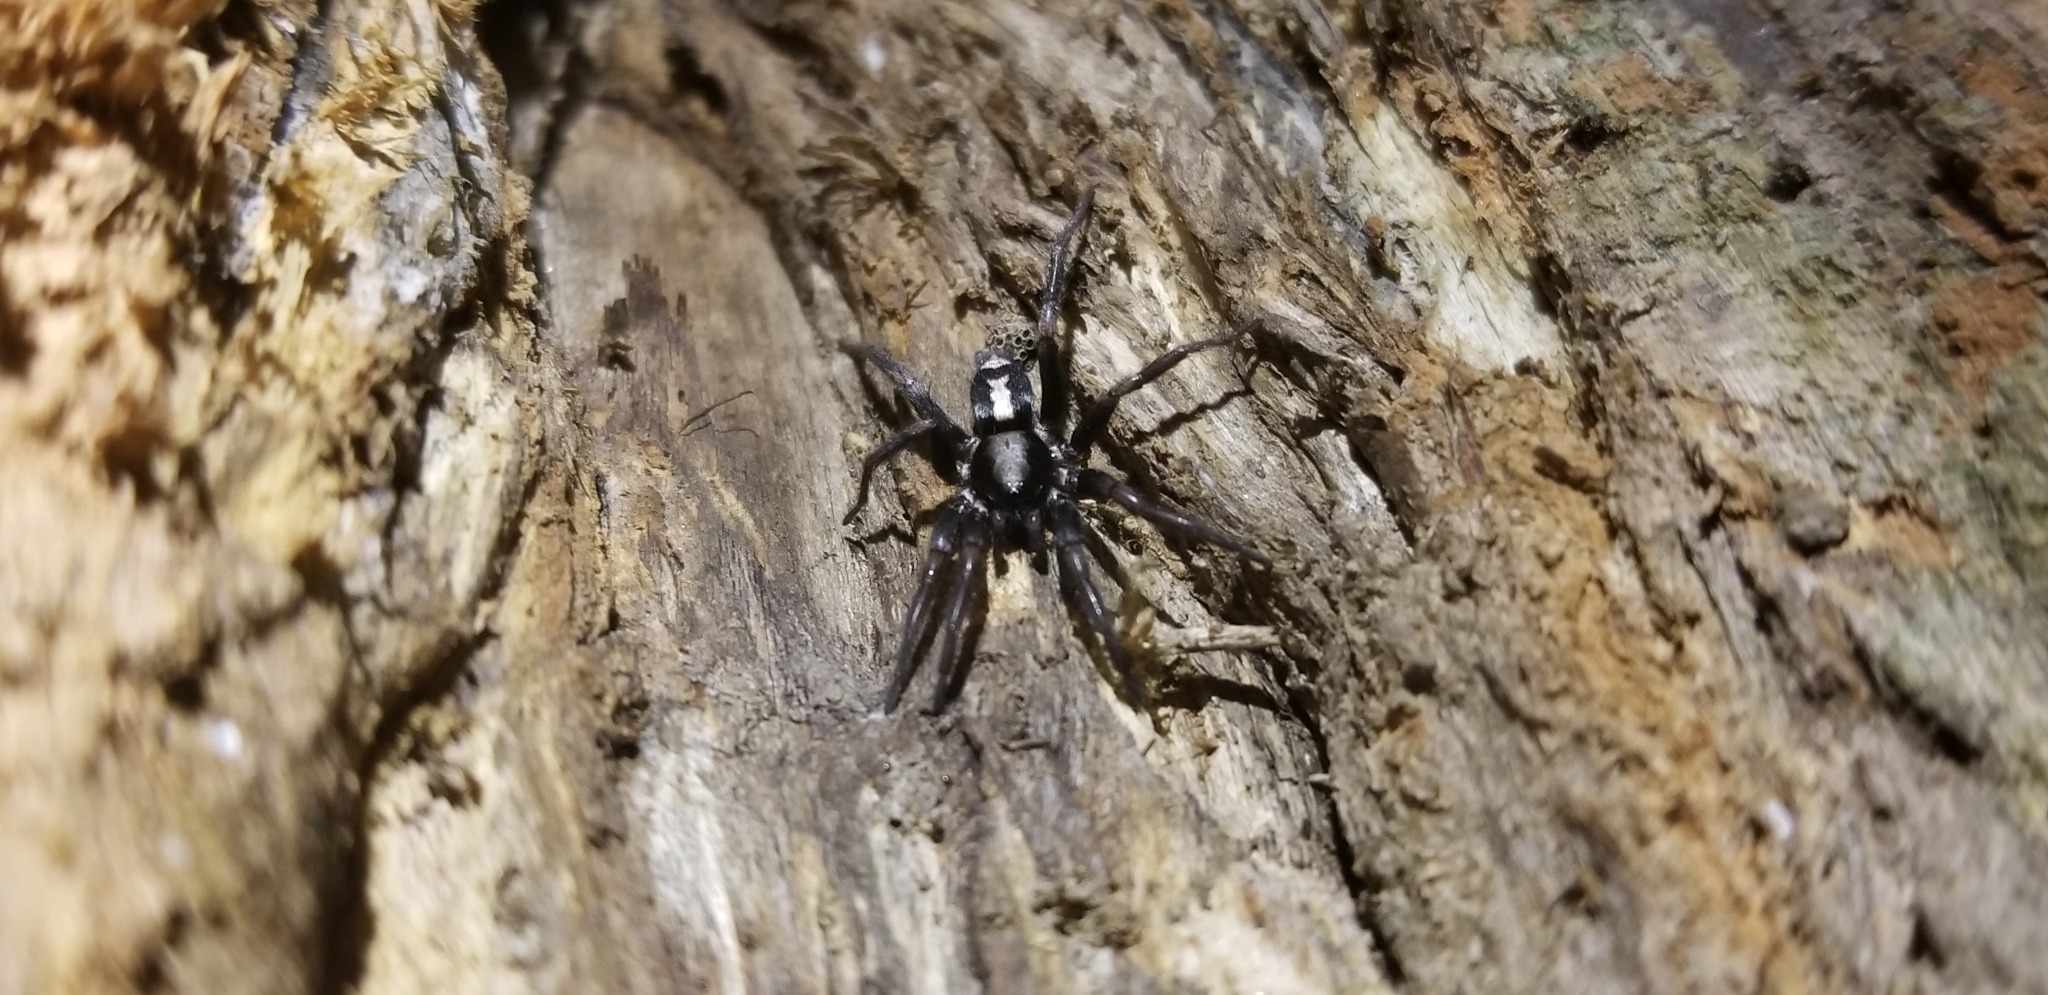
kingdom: Animalia
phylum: Arthropoda
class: Arachnida
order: Araneae
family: Gnaphosidae
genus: Herpyllus
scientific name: Herpyllus ecclesiasticus
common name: Eastern parson spider
